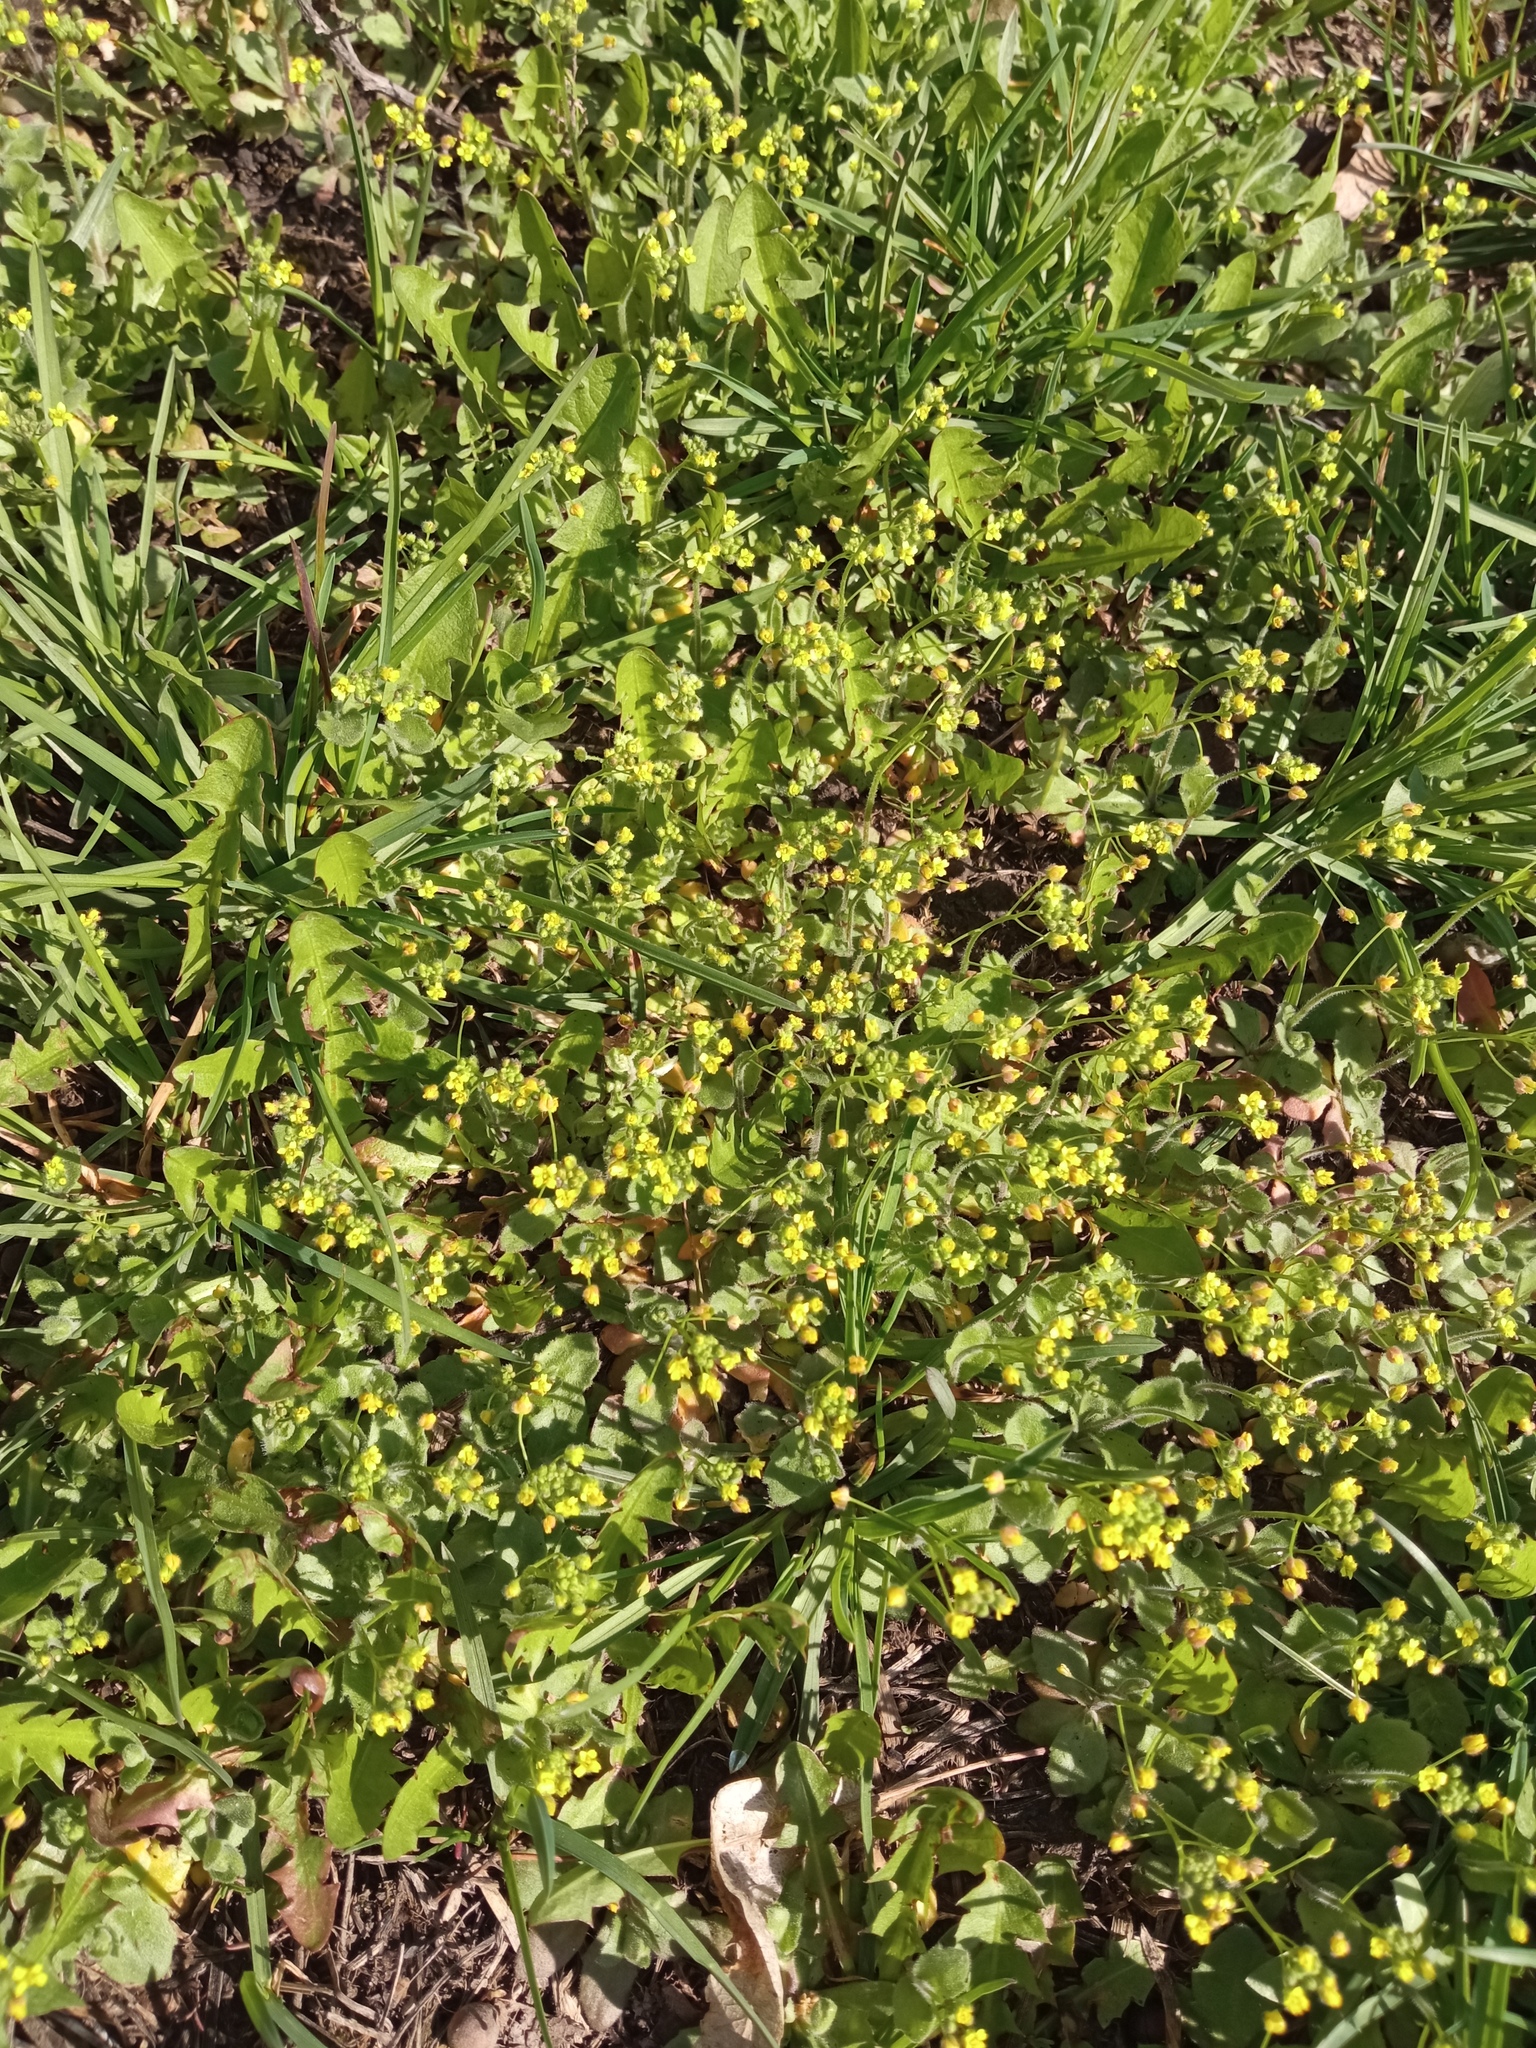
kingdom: Plantae
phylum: Tracheophyta
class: Magnoliopsida
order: Brassicales
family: Brassicaceae
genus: Draba
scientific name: Draba nemorosa
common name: Wood whitlow-grass
